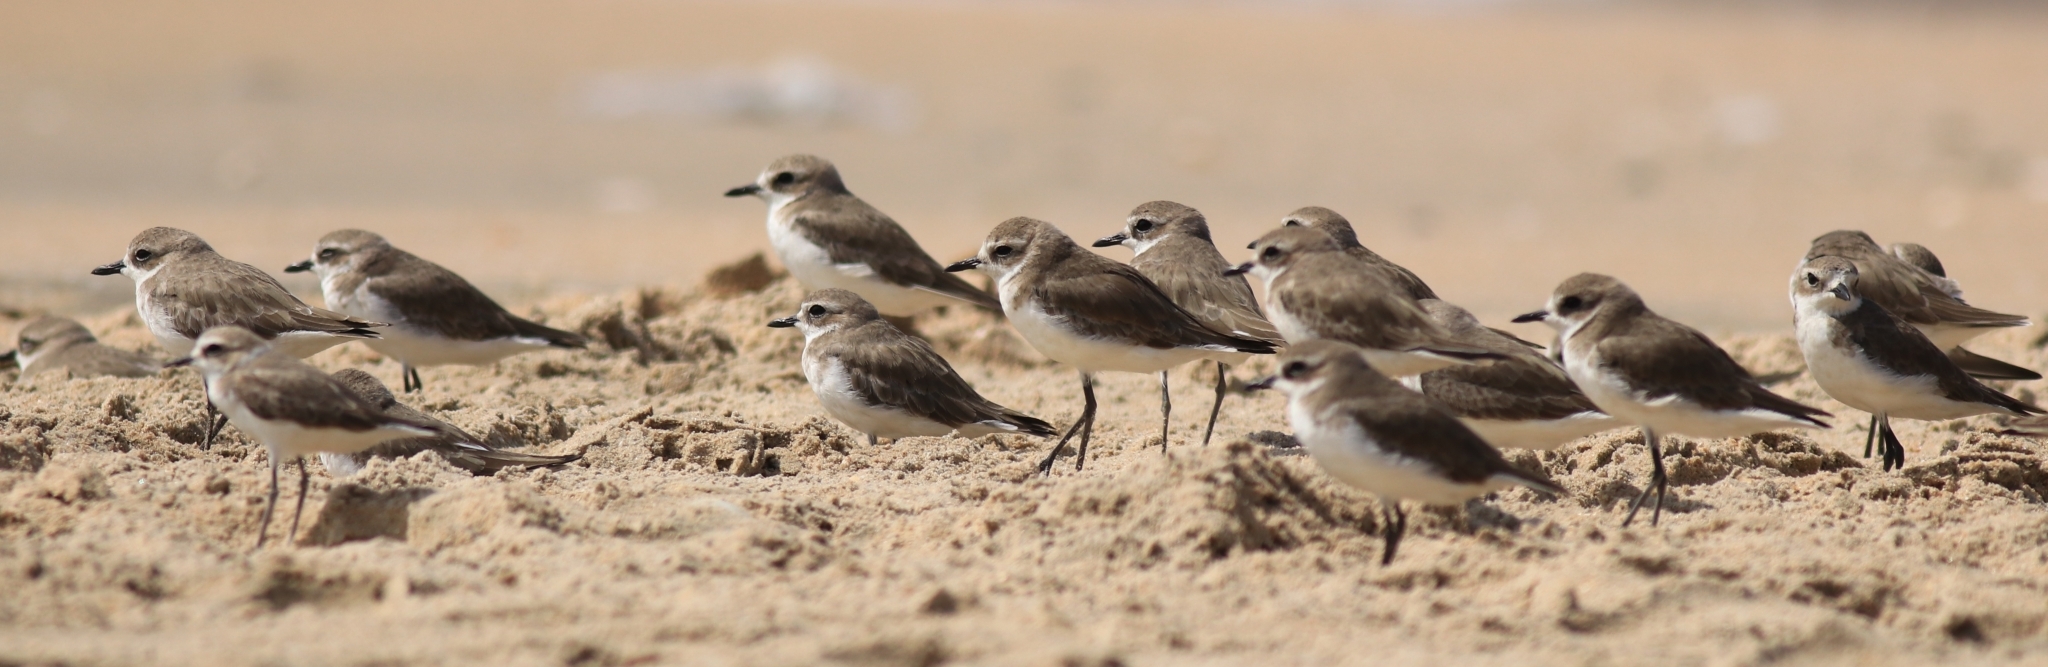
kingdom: Animalia
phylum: Chordata
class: Aves
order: Charadriiformes
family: Charadriidae
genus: Anarhynchus
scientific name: Anarhynchus
